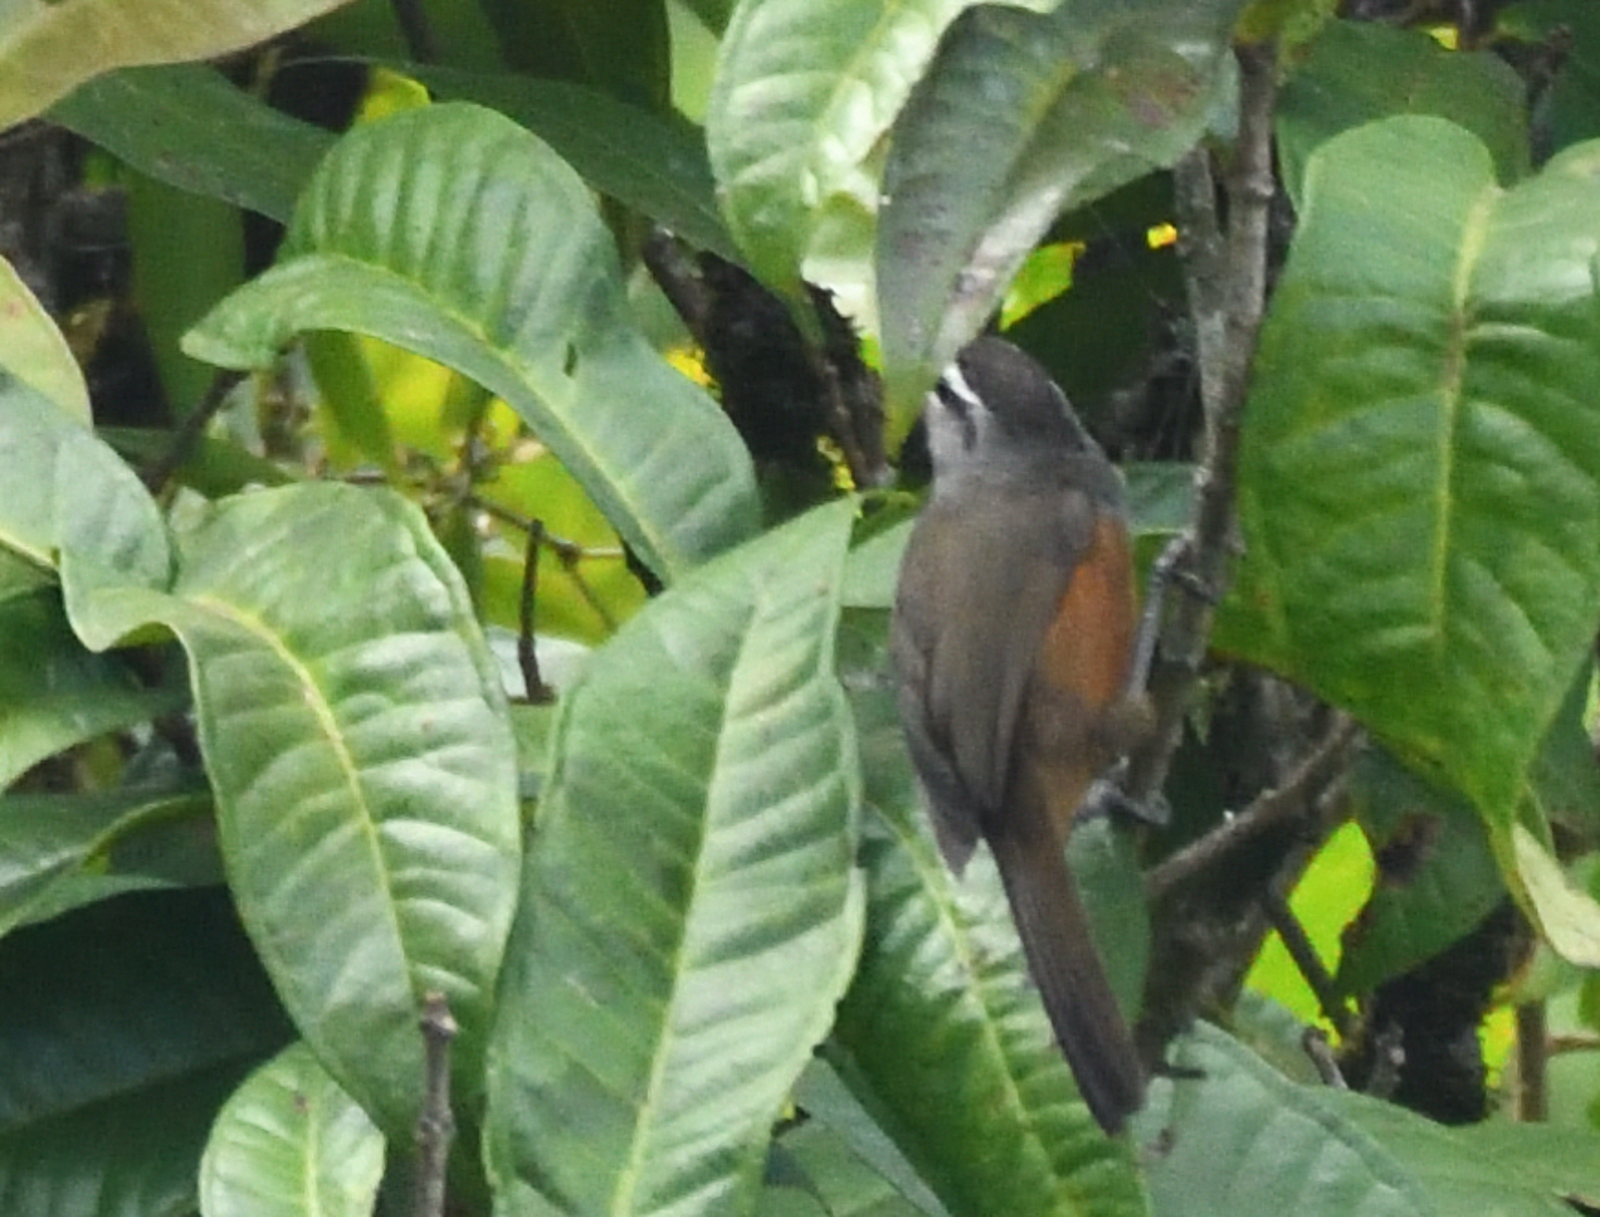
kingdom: Animalia
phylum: Chordata
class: Aves
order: Passeriformes
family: Leiothrichidae
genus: Trochalopteron
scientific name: Trochalopteron fairbanki
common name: Kerala laughingthrush
